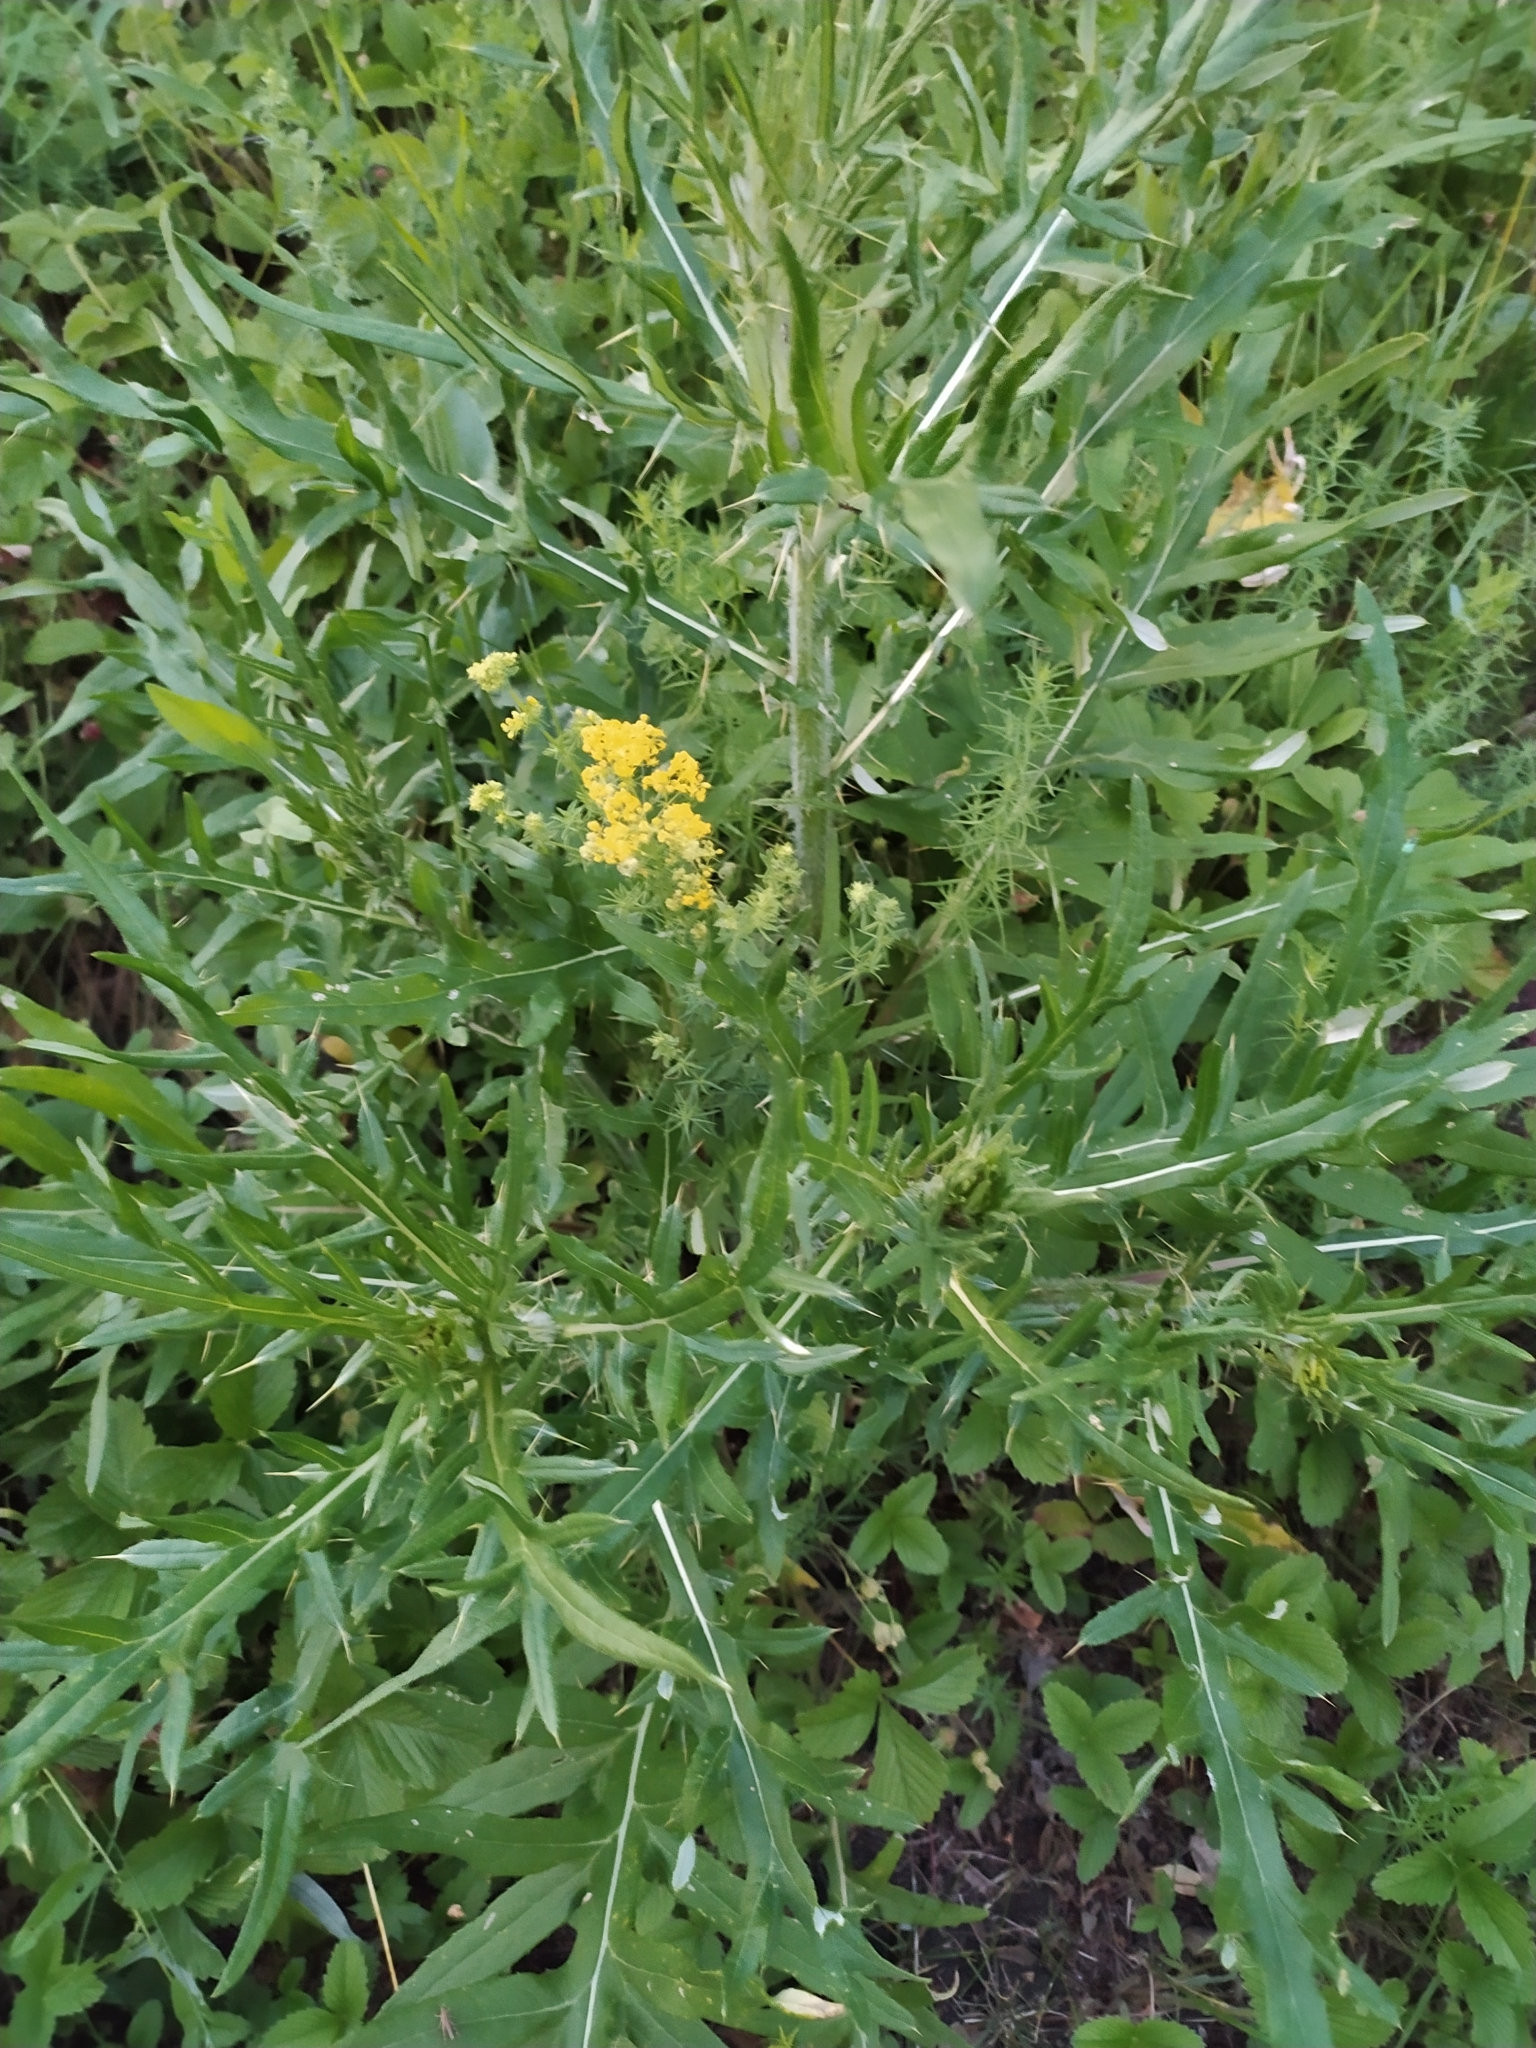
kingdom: Plantae
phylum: Tracheophyta
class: Magnoliopsida
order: Asterales
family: Asteraceae
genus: Cirsium
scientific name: Cirsium serrulatum
